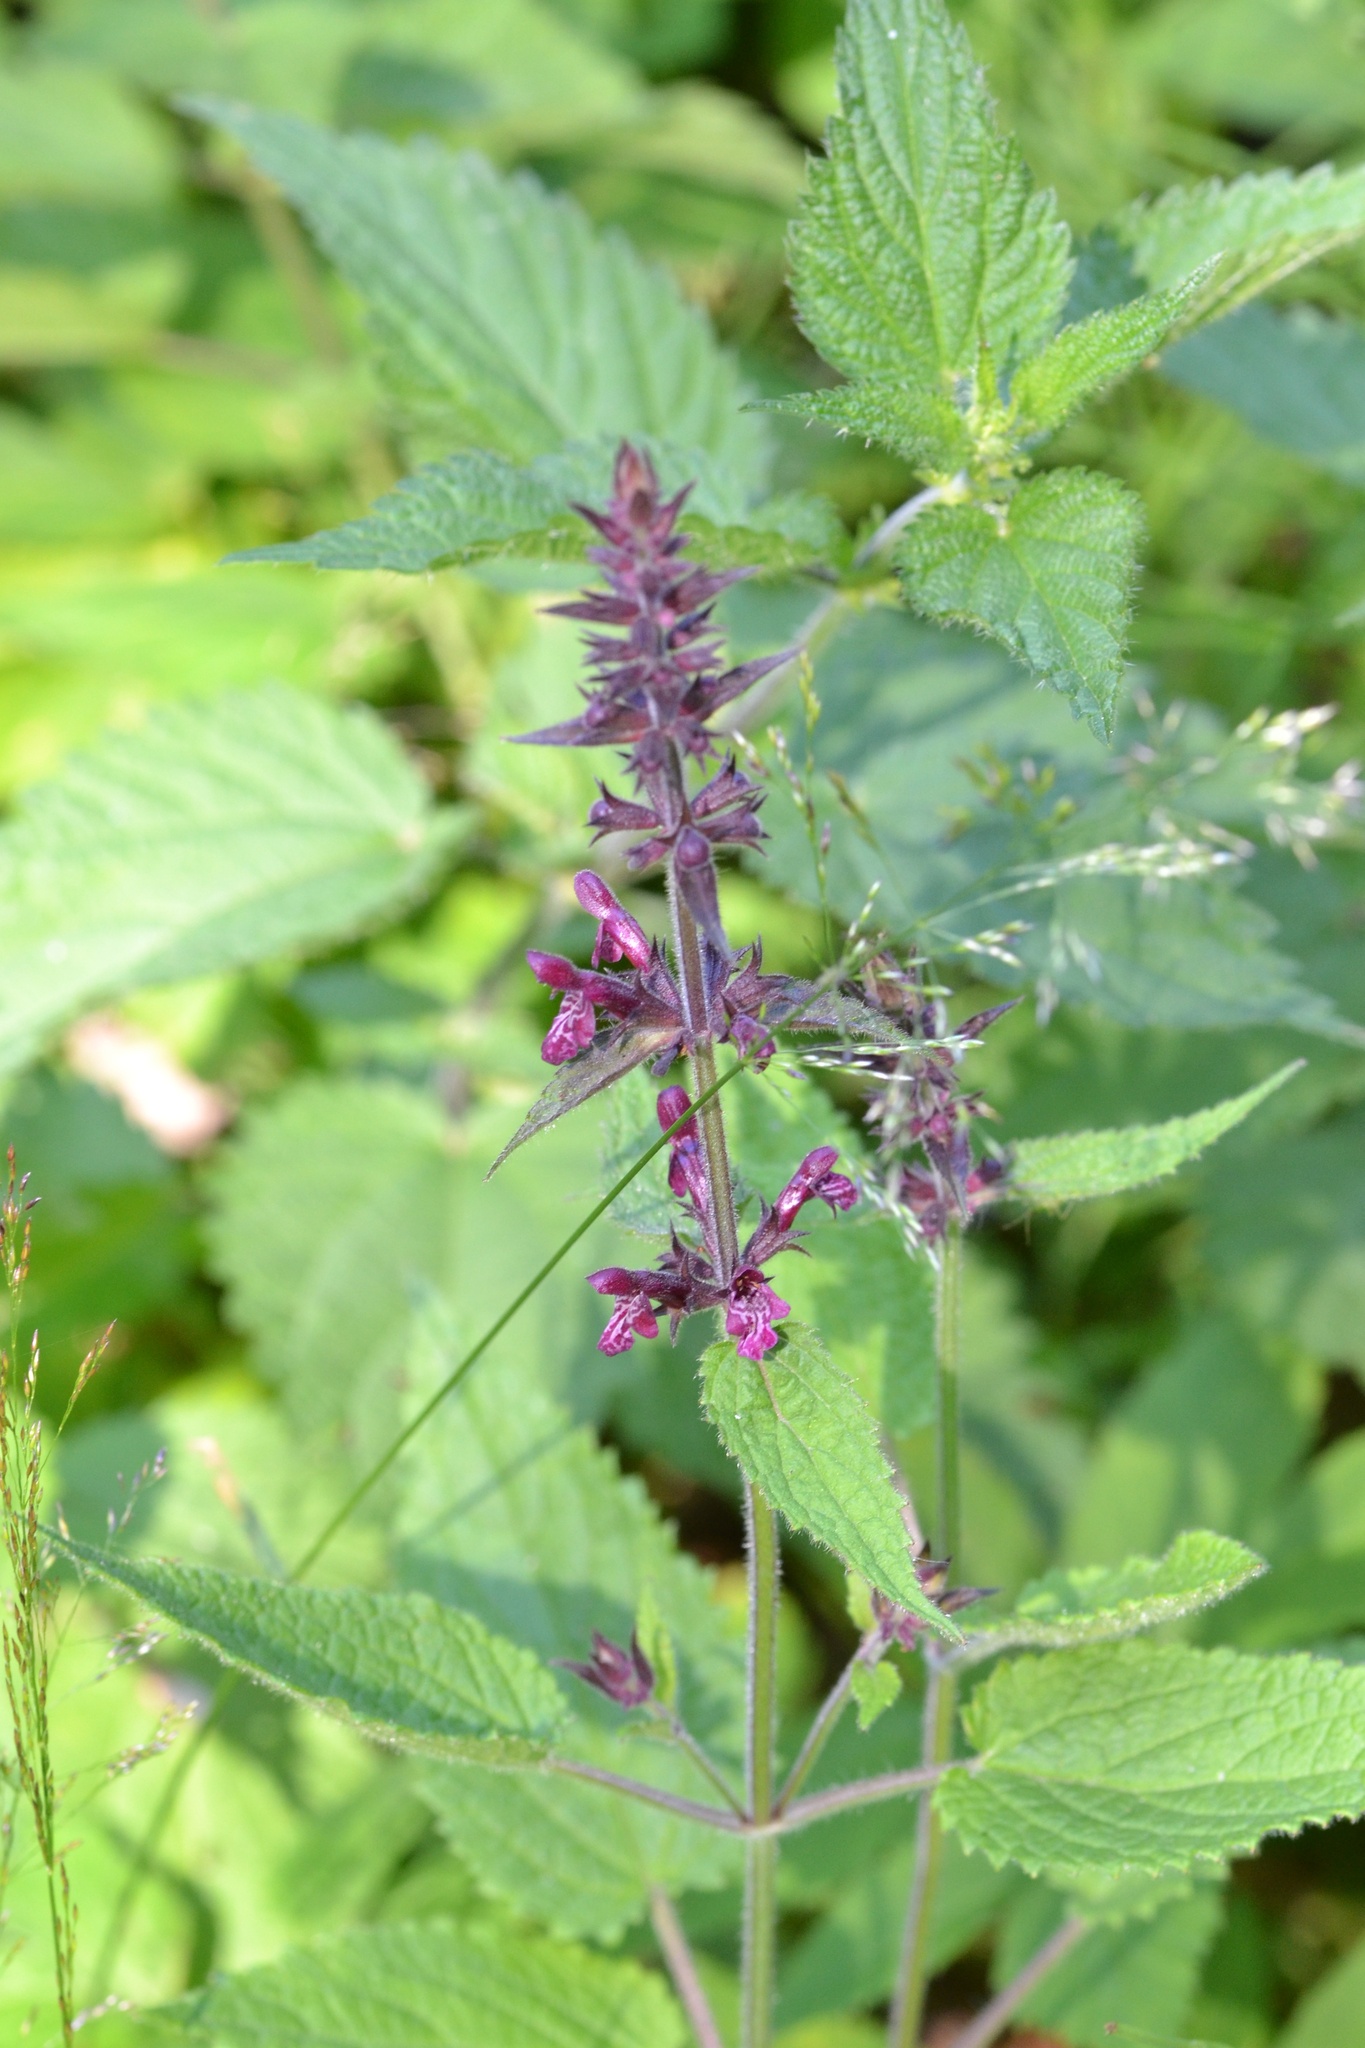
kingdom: Plantae
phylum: Tracheophyta
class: Magnoliopsida
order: Lamiales
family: Lamiaceae
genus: Stachys
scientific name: Stachys sylvatica
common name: Hedge woundwort
